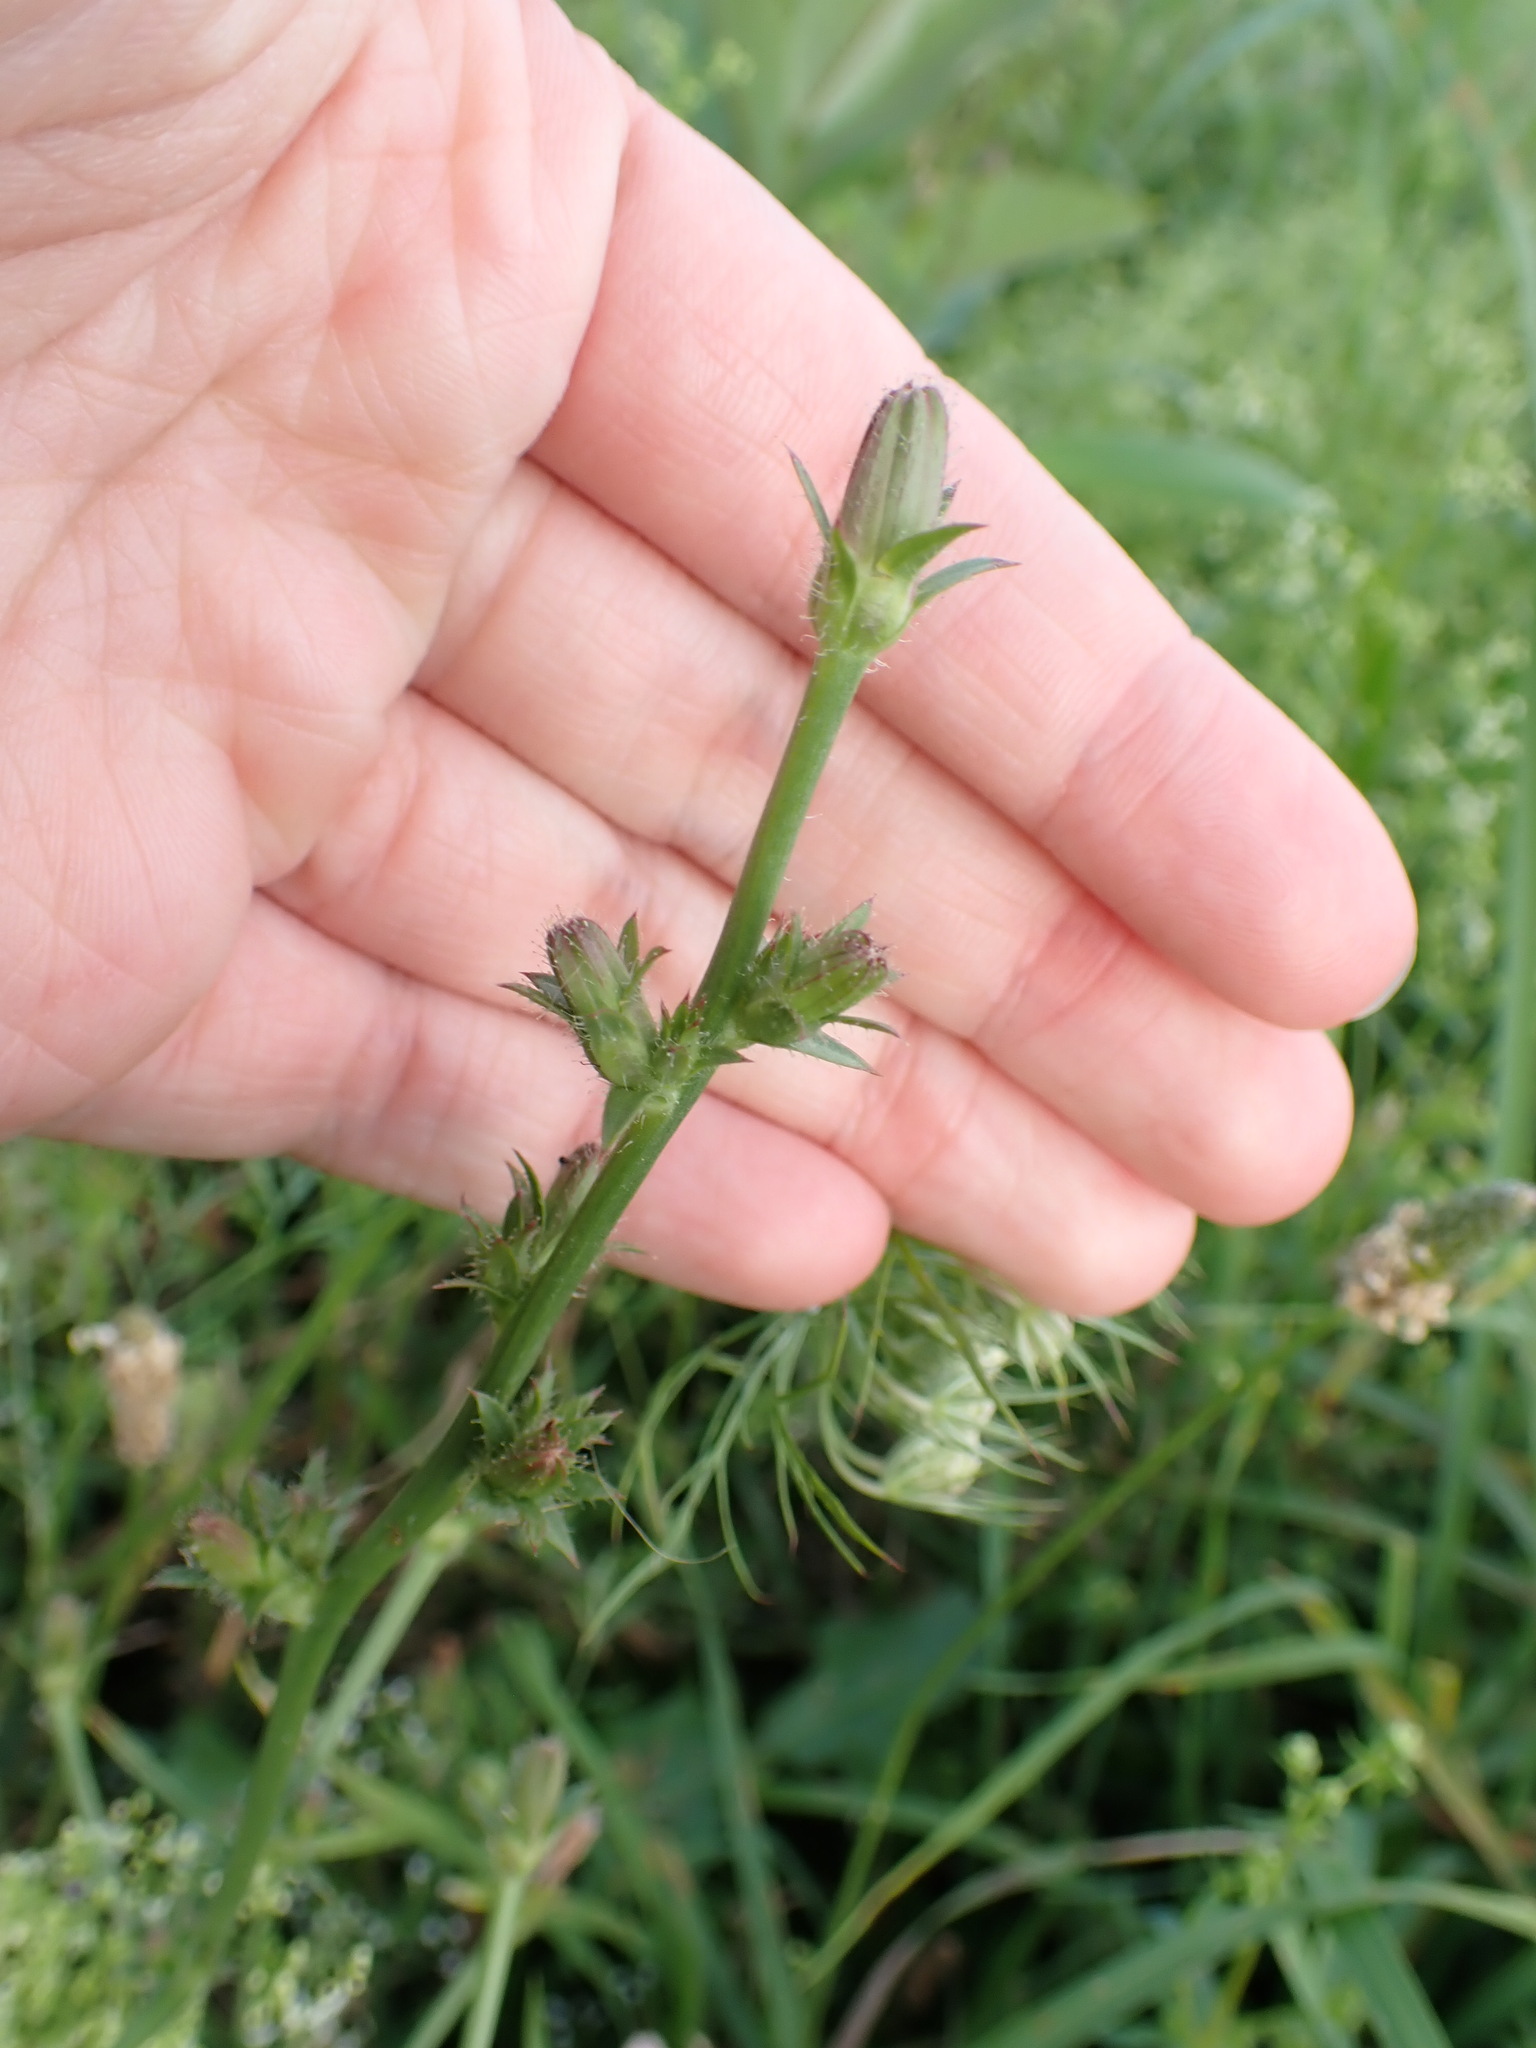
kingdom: Plantae
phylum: Tracheophyta
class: Magnoliopsida
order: Asterales
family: Asteraceae
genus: Cichorium
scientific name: Cichorium intybus
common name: Chicory
